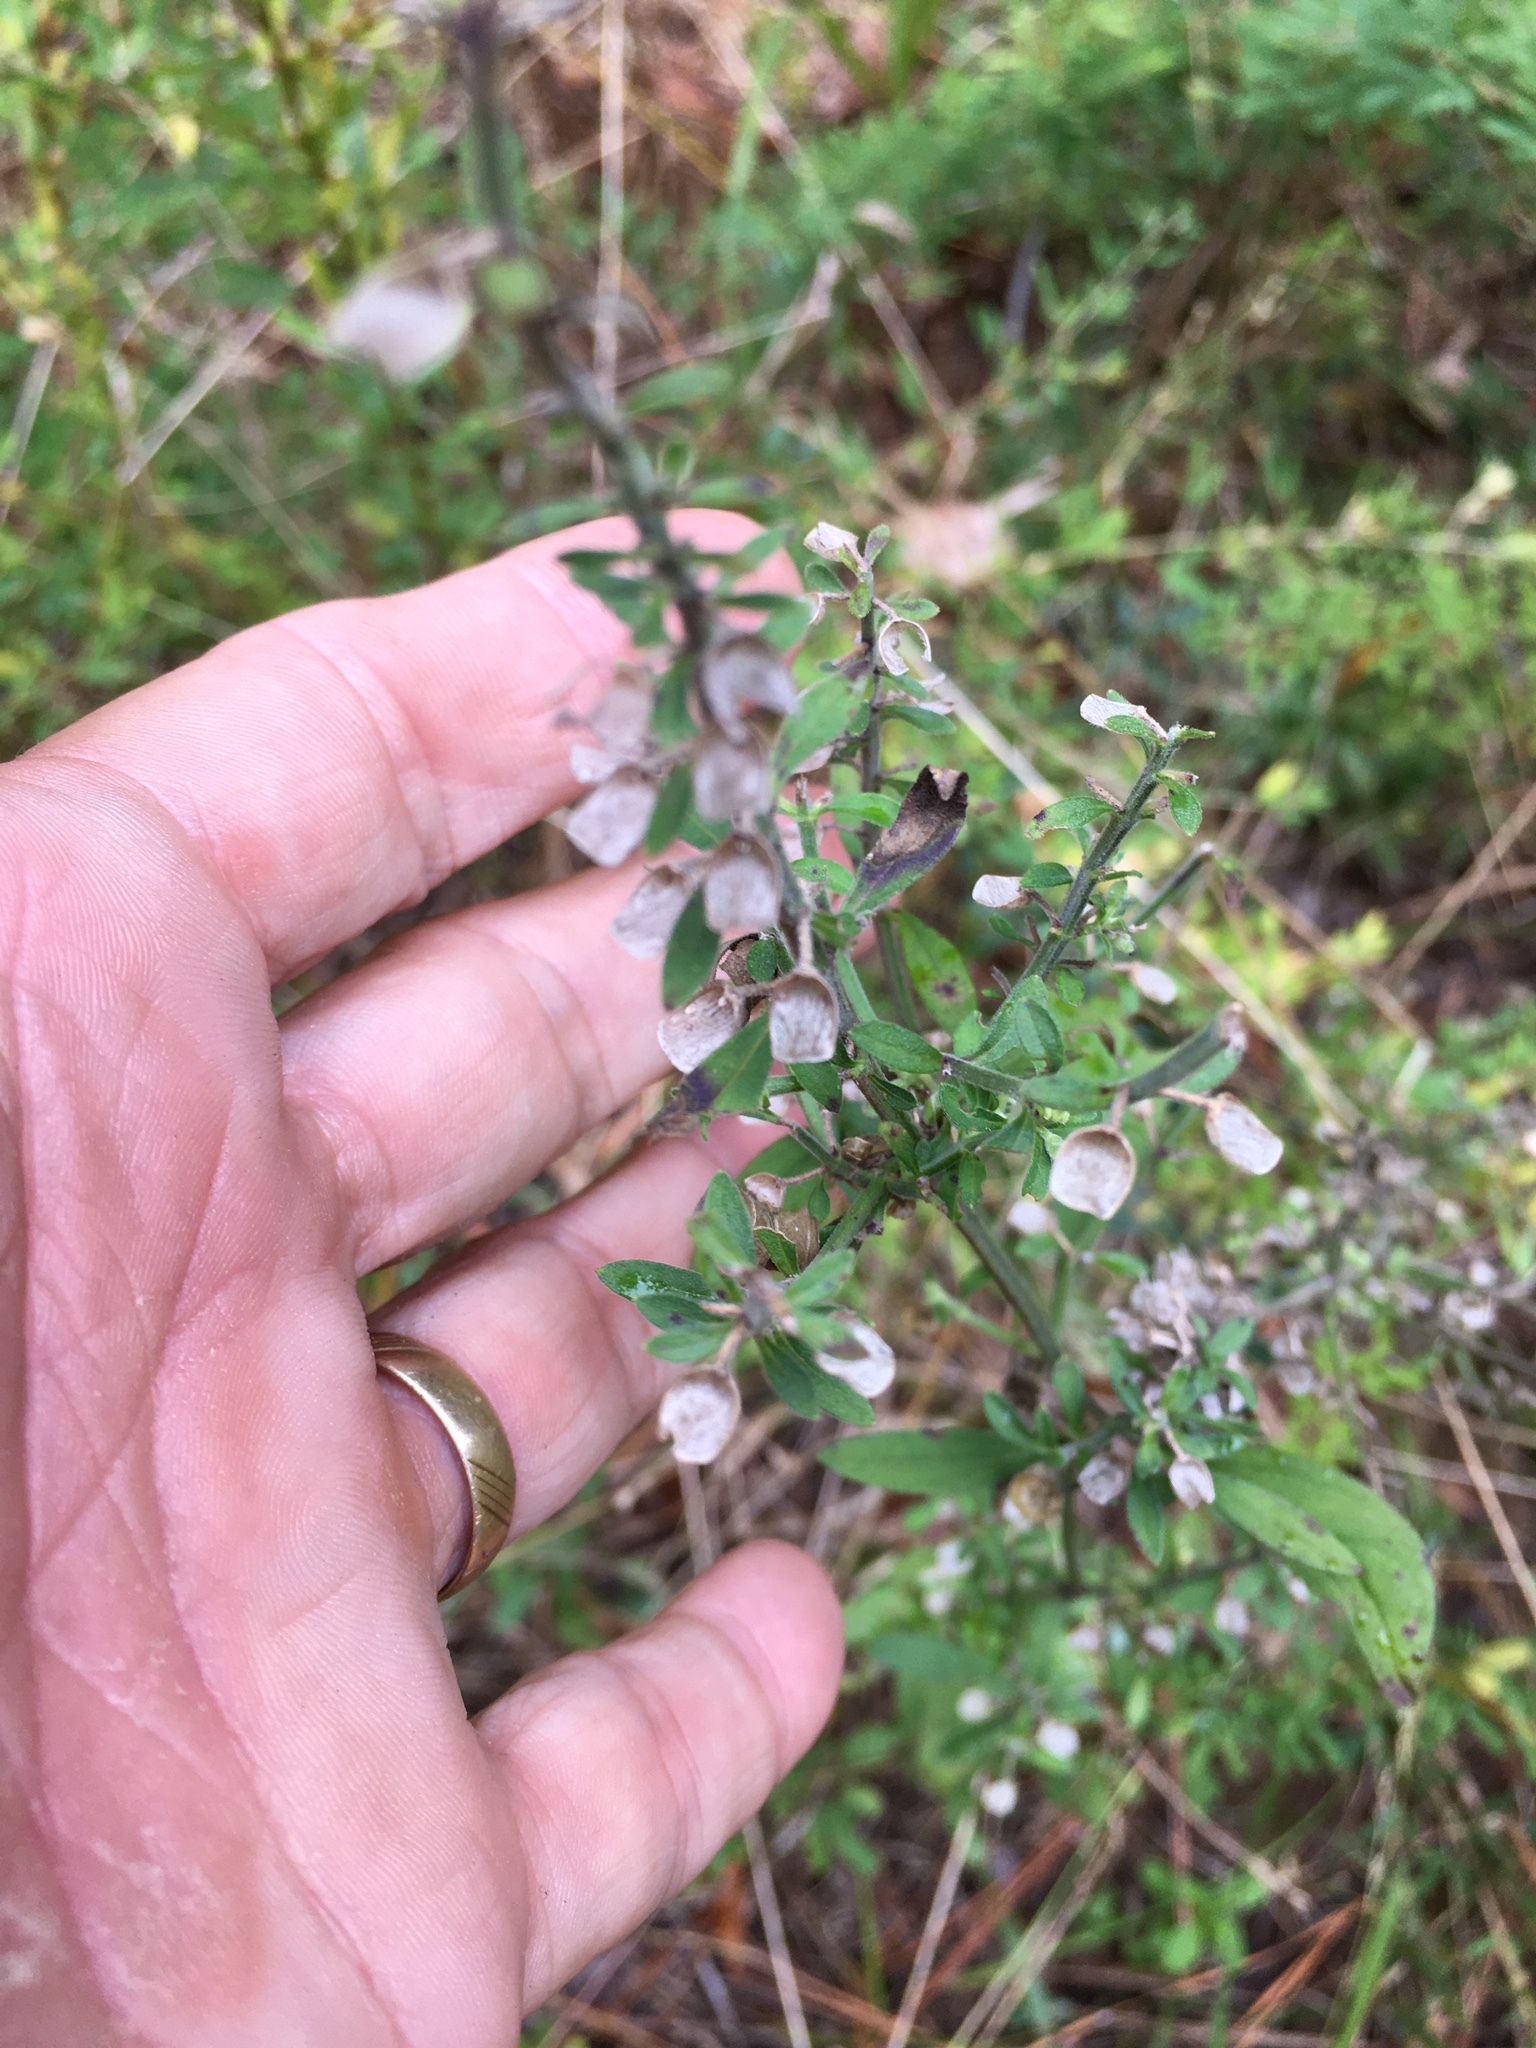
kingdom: Plantae
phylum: Tracheophyta
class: Magnoliopsida
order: Lamiales
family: Lamiaceae
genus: Scutellaria
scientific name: Scutellaria integrifolia
